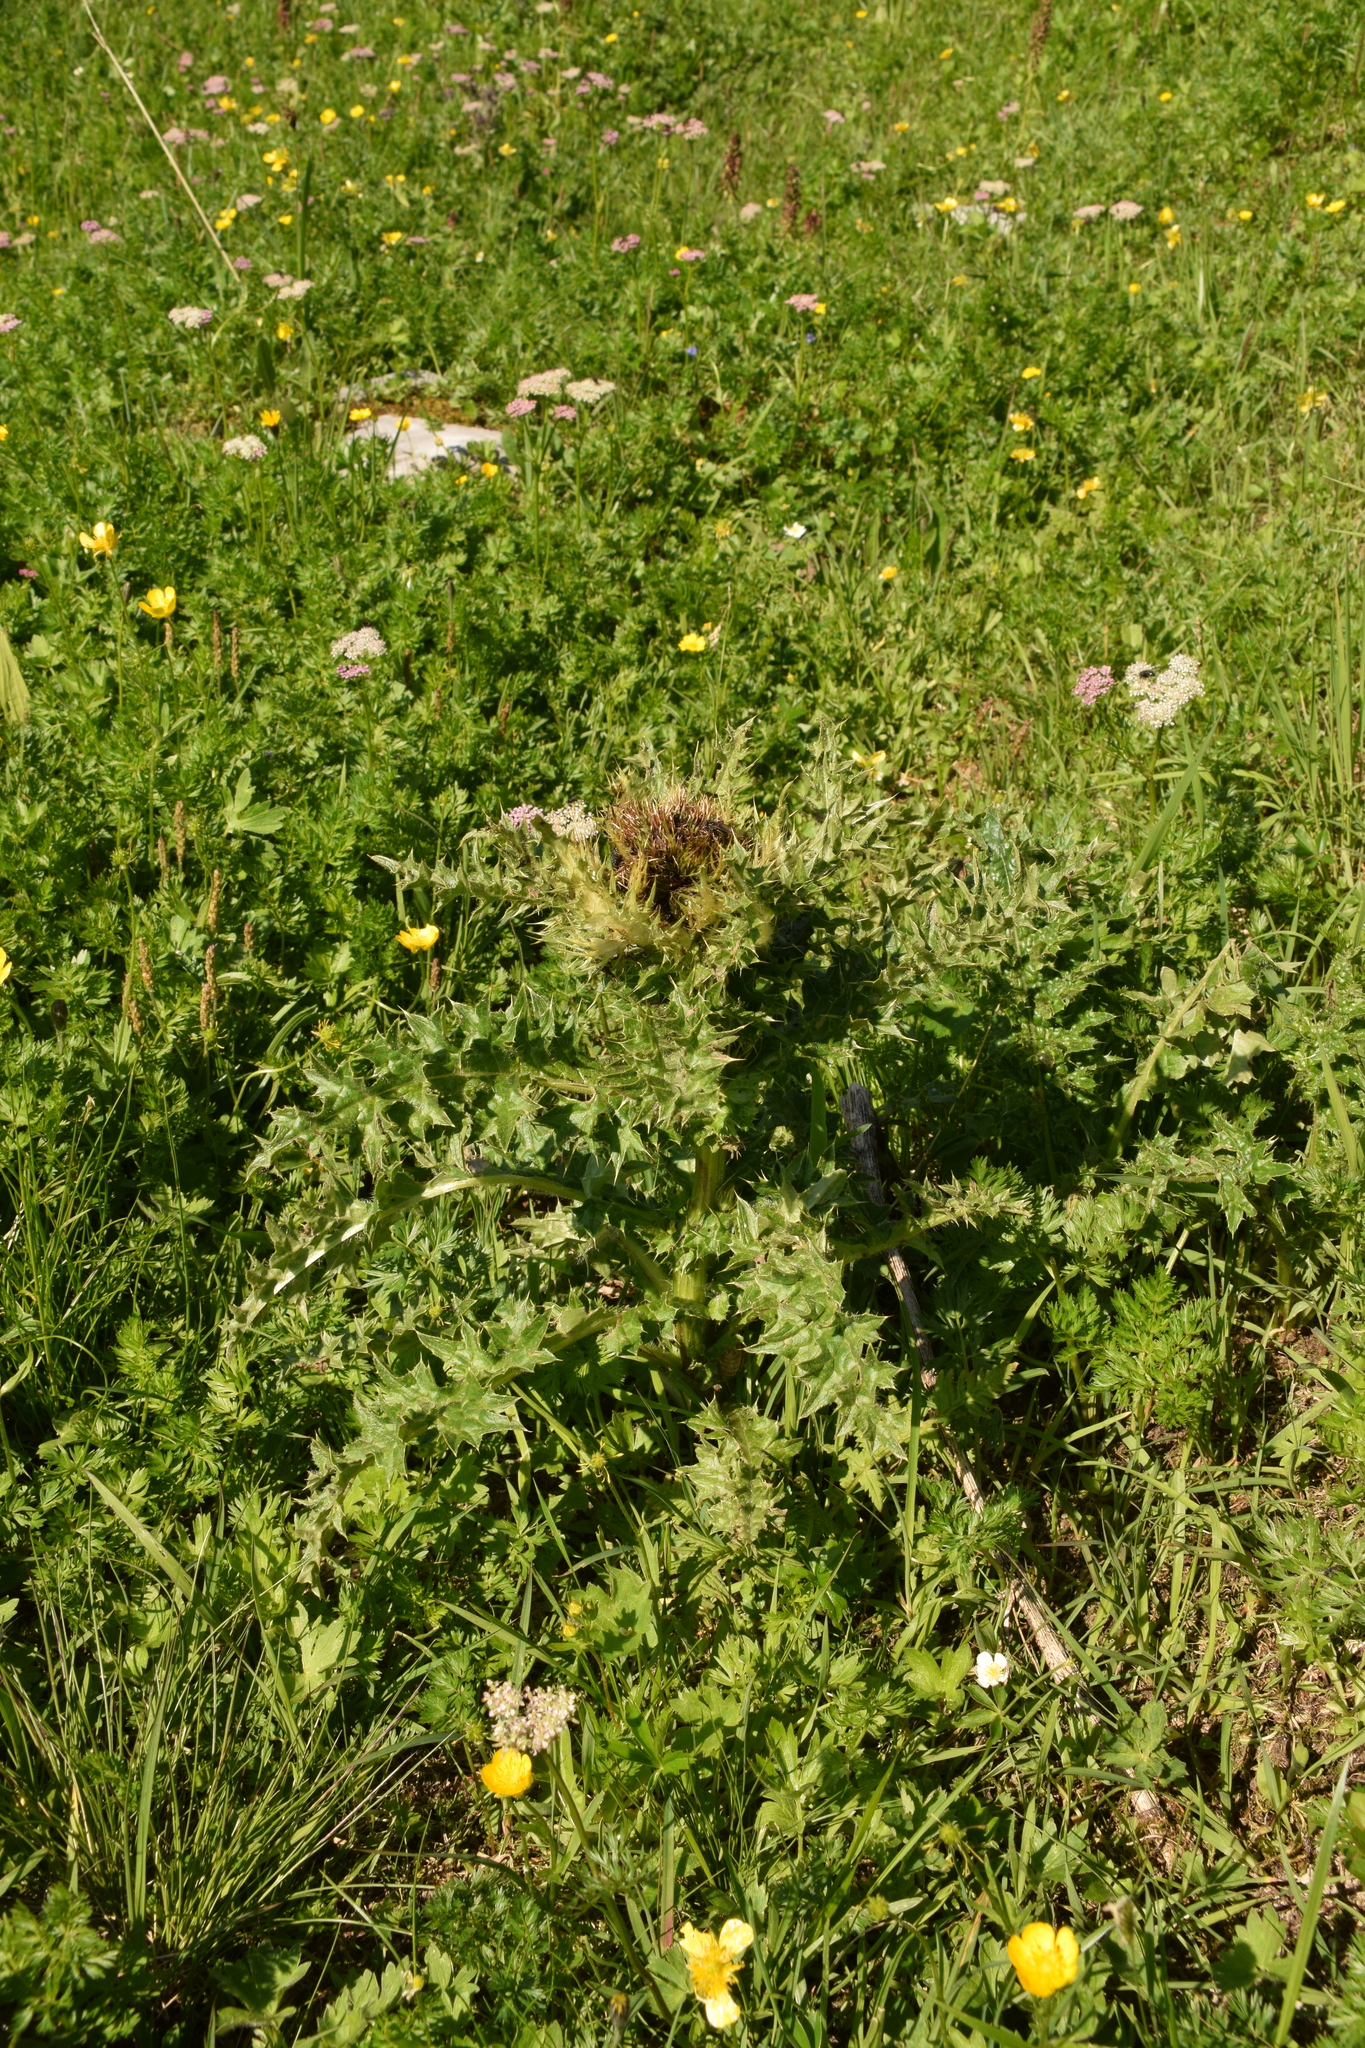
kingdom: Plantae
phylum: Tracheophyta
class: Magnoliopsida
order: Asterales
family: Asteraceae
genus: Cirsium
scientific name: Cirsium spinosissimum
